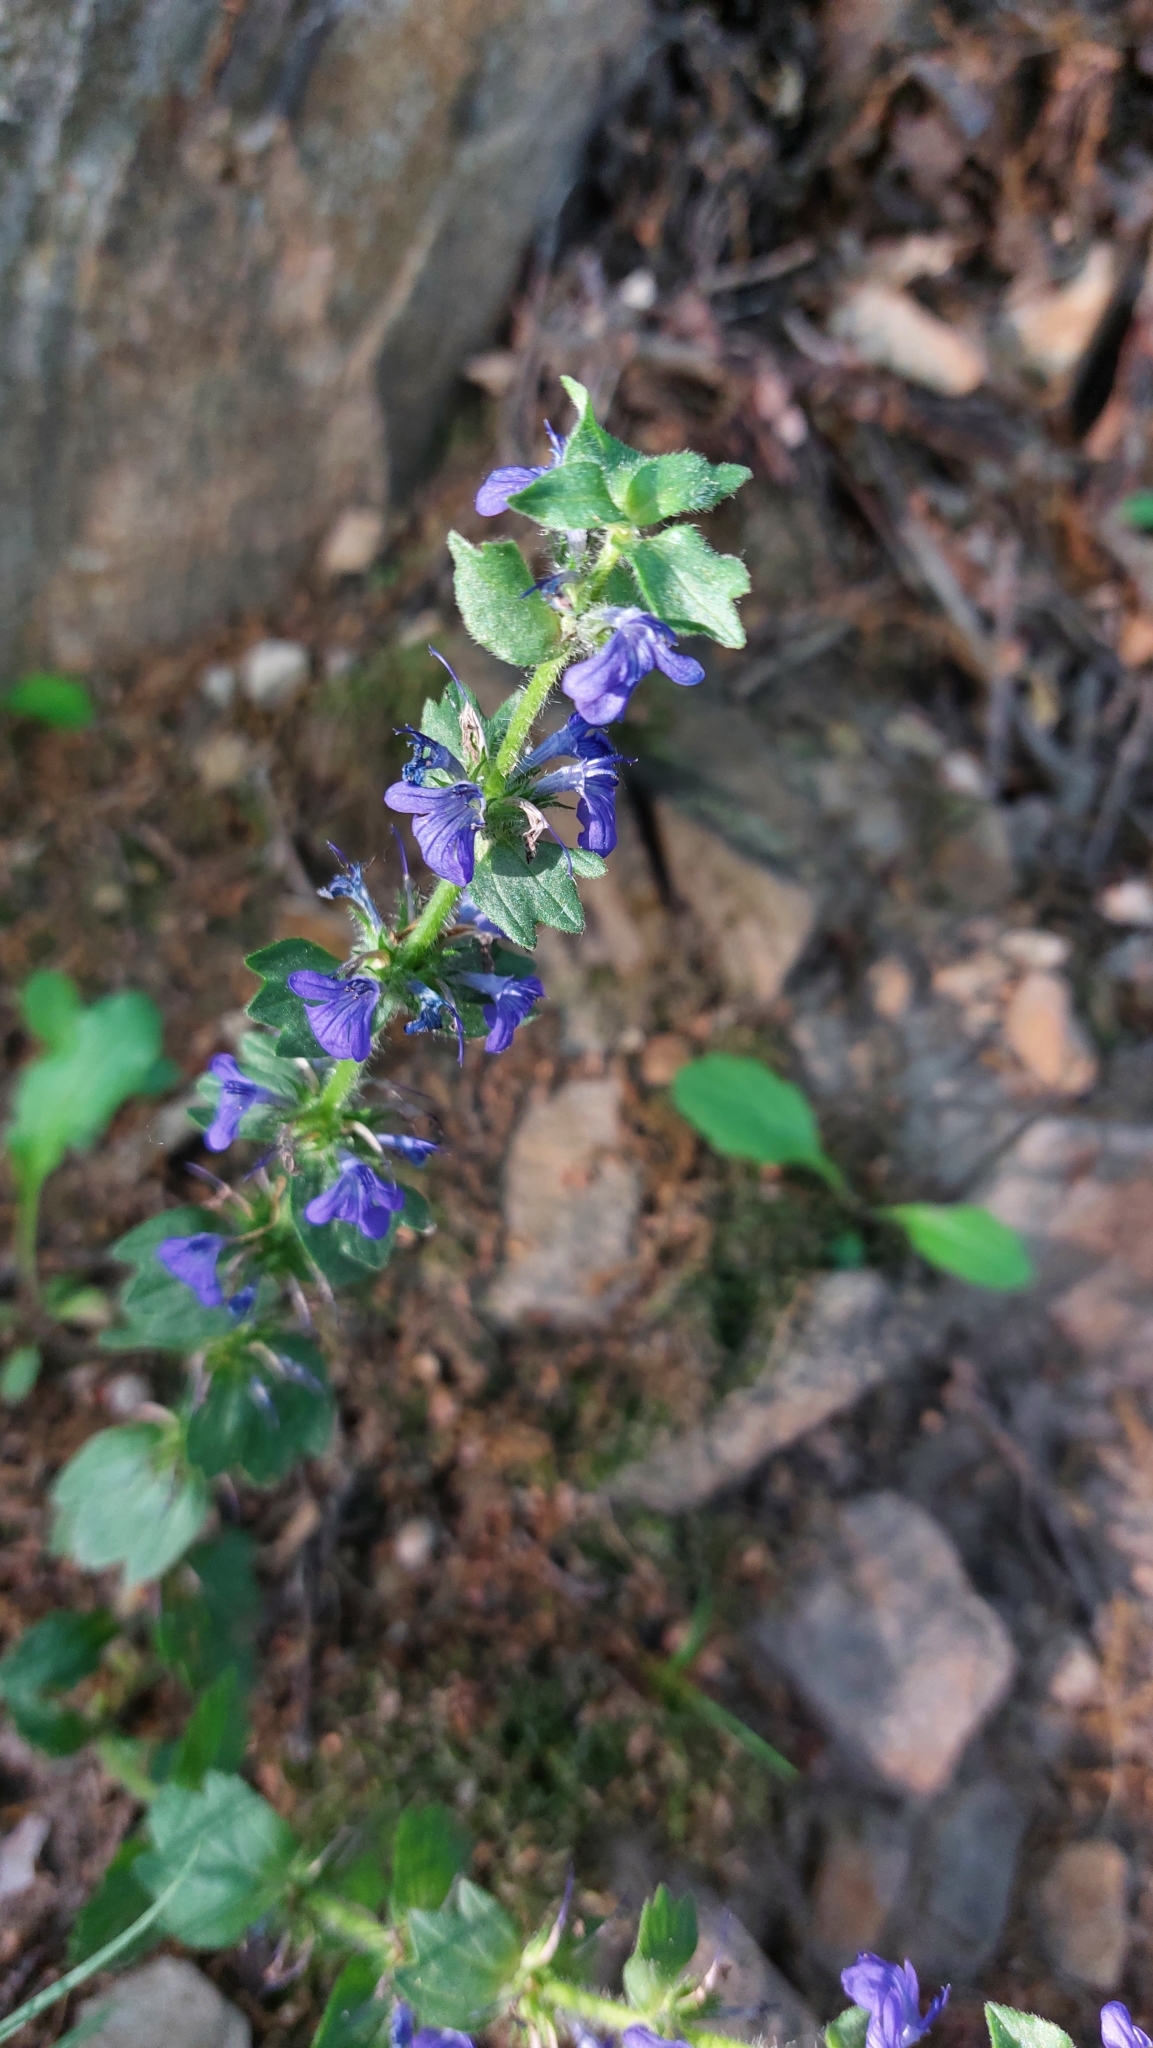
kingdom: Plantae
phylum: Tracheophyta
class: Magnoliopsida
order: Lamiales
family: Lamiaceae
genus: Ajuga
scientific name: Ajuga genevensis
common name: Blue bugle
